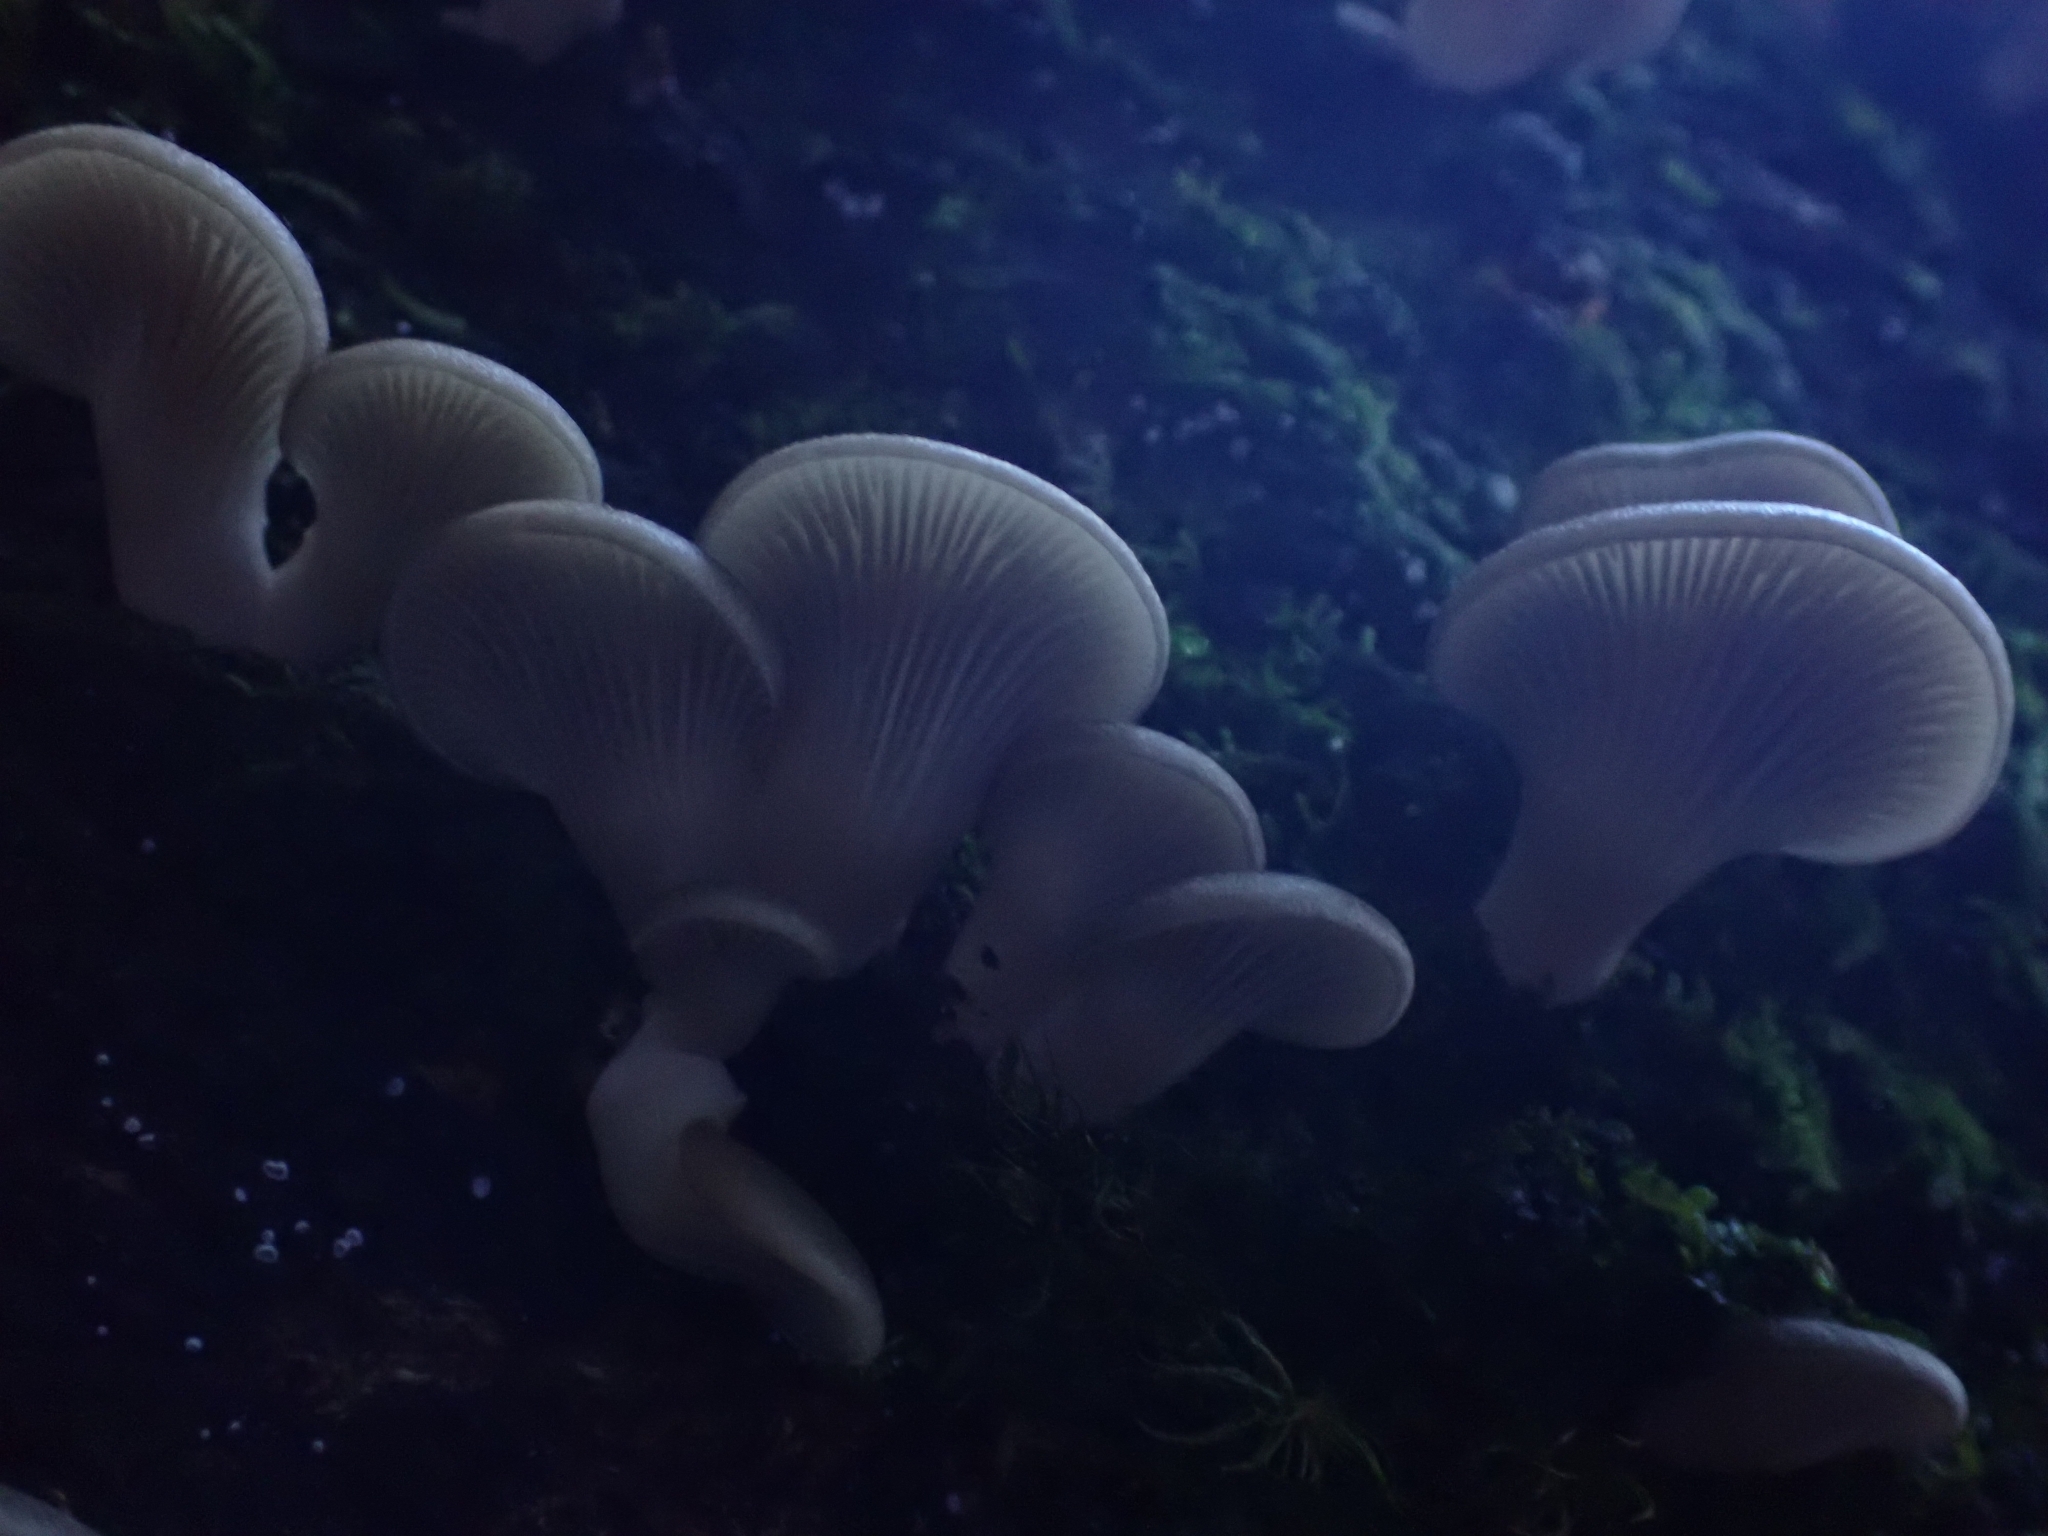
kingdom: Fungi
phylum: Basidiomycota
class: Agaricomycetes
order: Agaricales
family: Pleurotaceae
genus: Pleurotus
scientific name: Pleurotus purpureo-olivaceus
